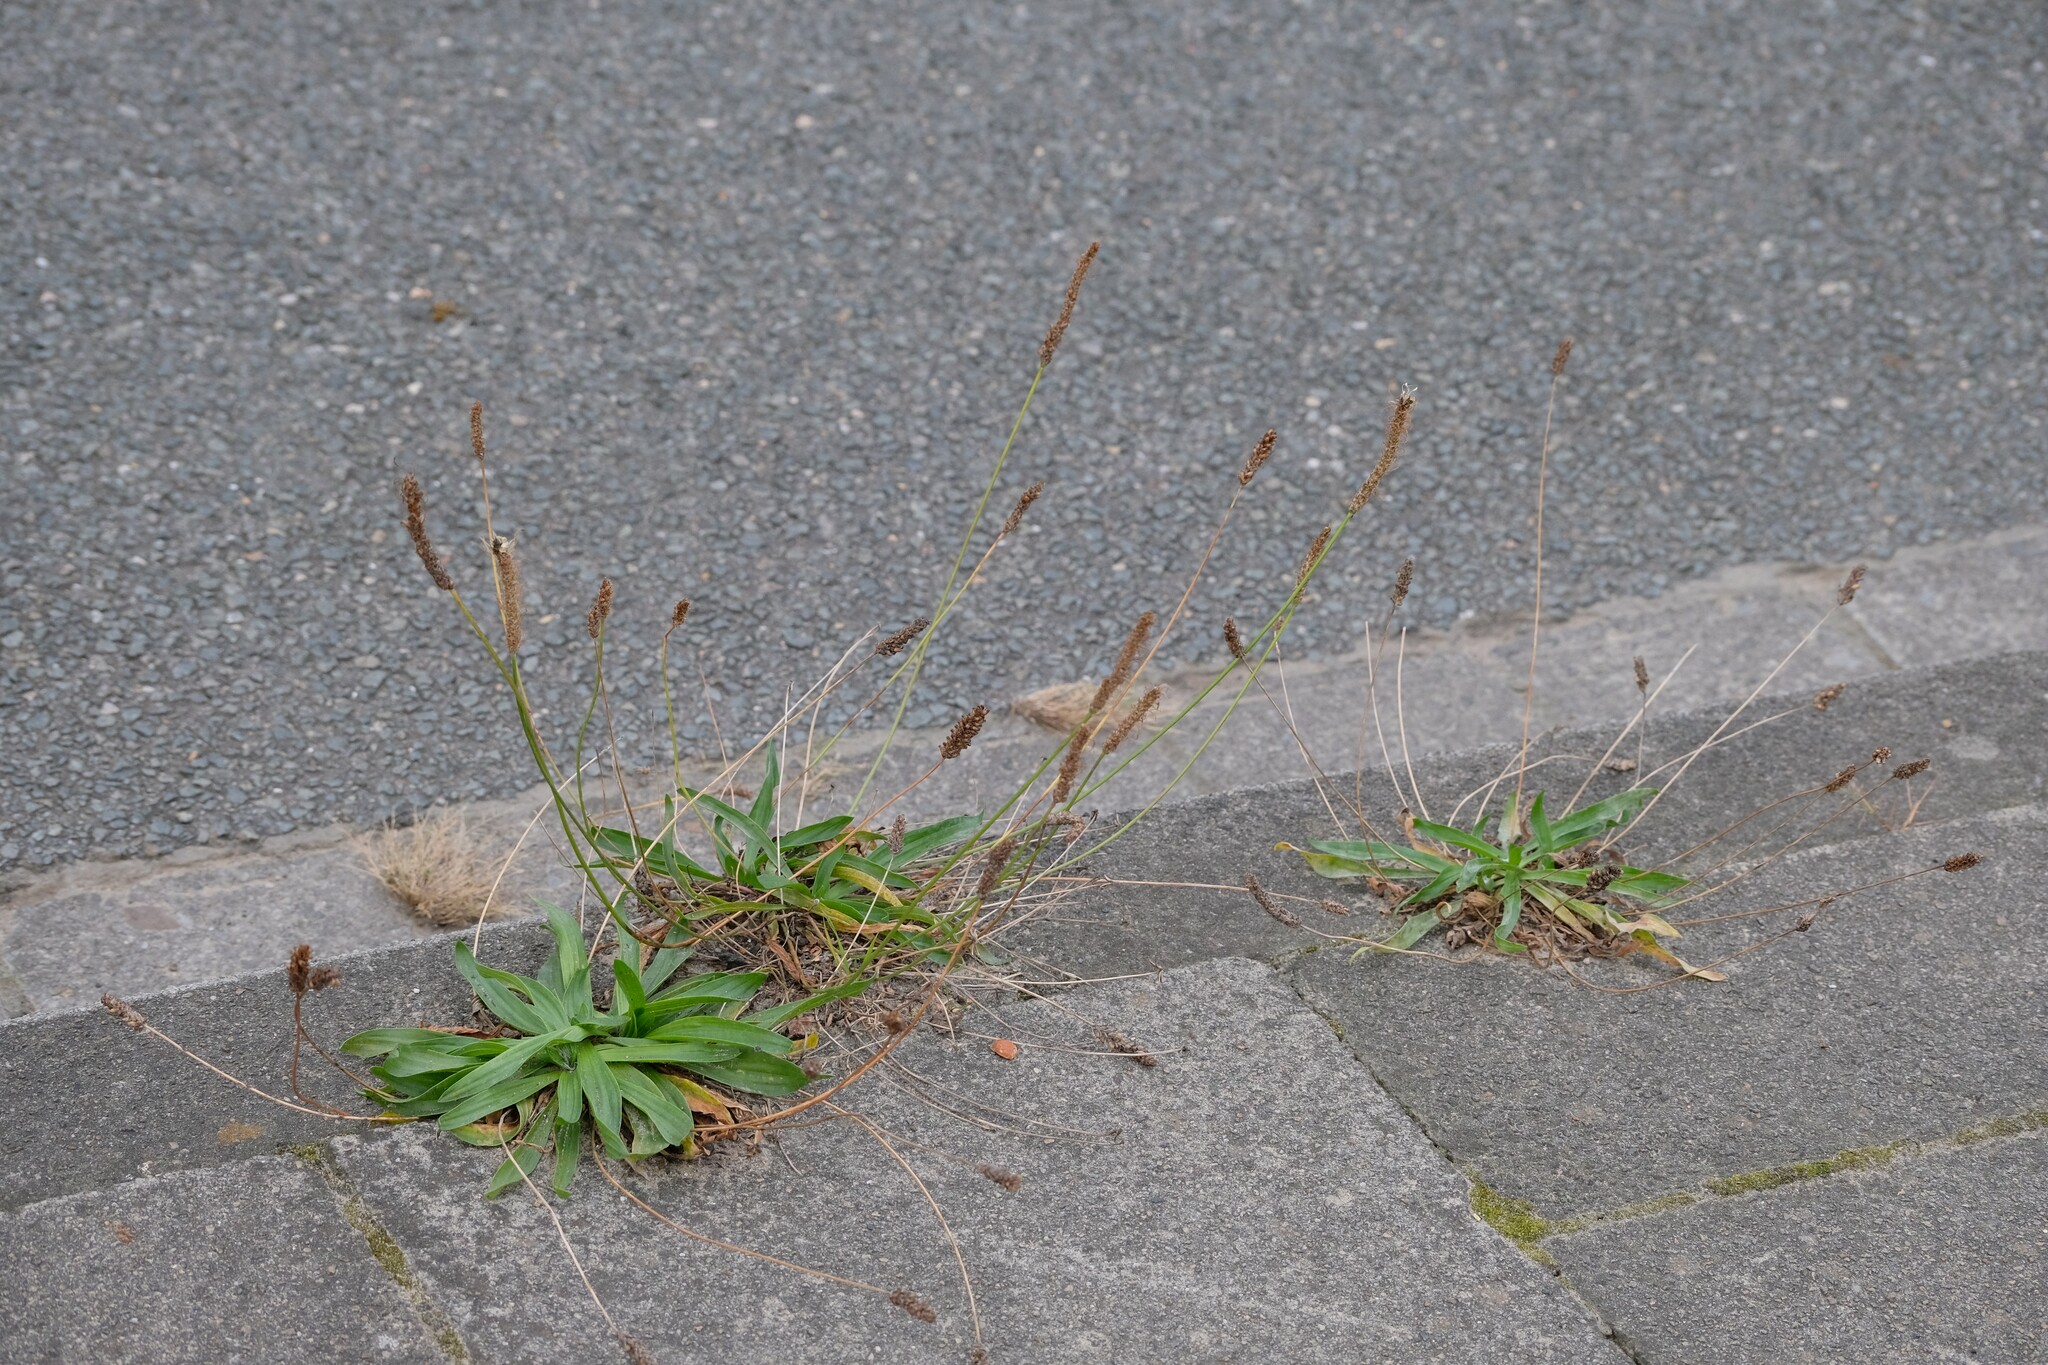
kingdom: Plantae
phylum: Tracheophyta
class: Magnoliopsida
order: Lamiales
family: Plantaginaceae
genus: Plantago
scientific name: Plantago lanceolata
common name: Ribwort plantain
